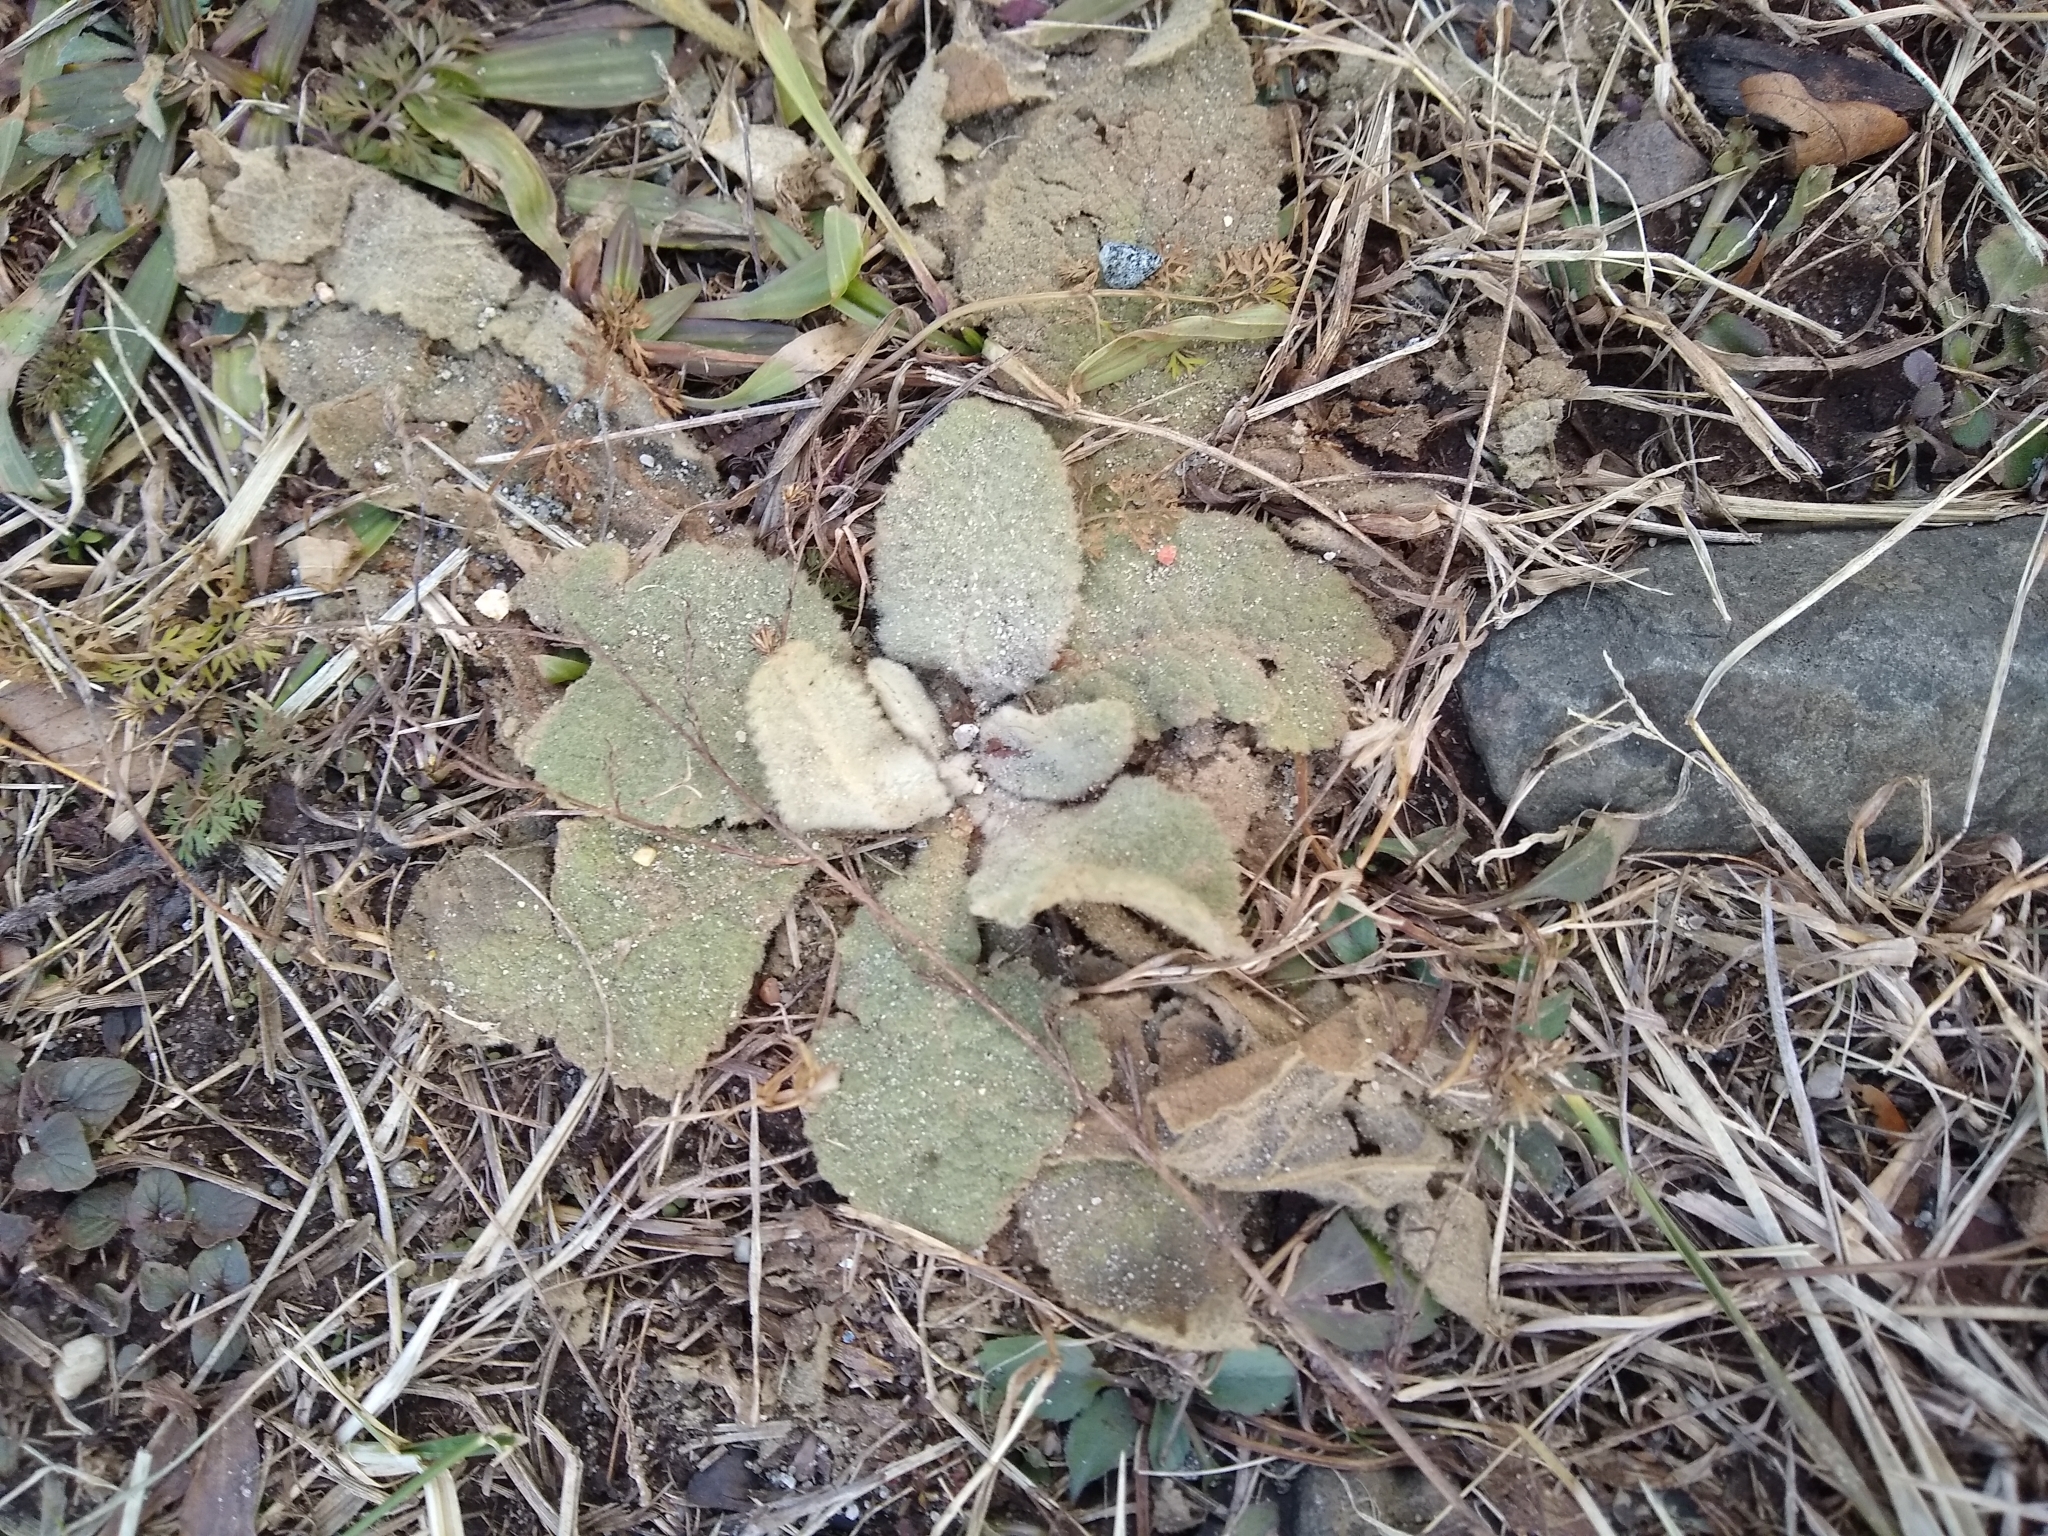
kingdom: Plantae
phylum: Tracheophyta
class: Magnoliopsida
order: Lamiales
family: Scrophulariaceae
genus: Verbascum
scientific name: Verbascum thapsus
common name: Common mullein
